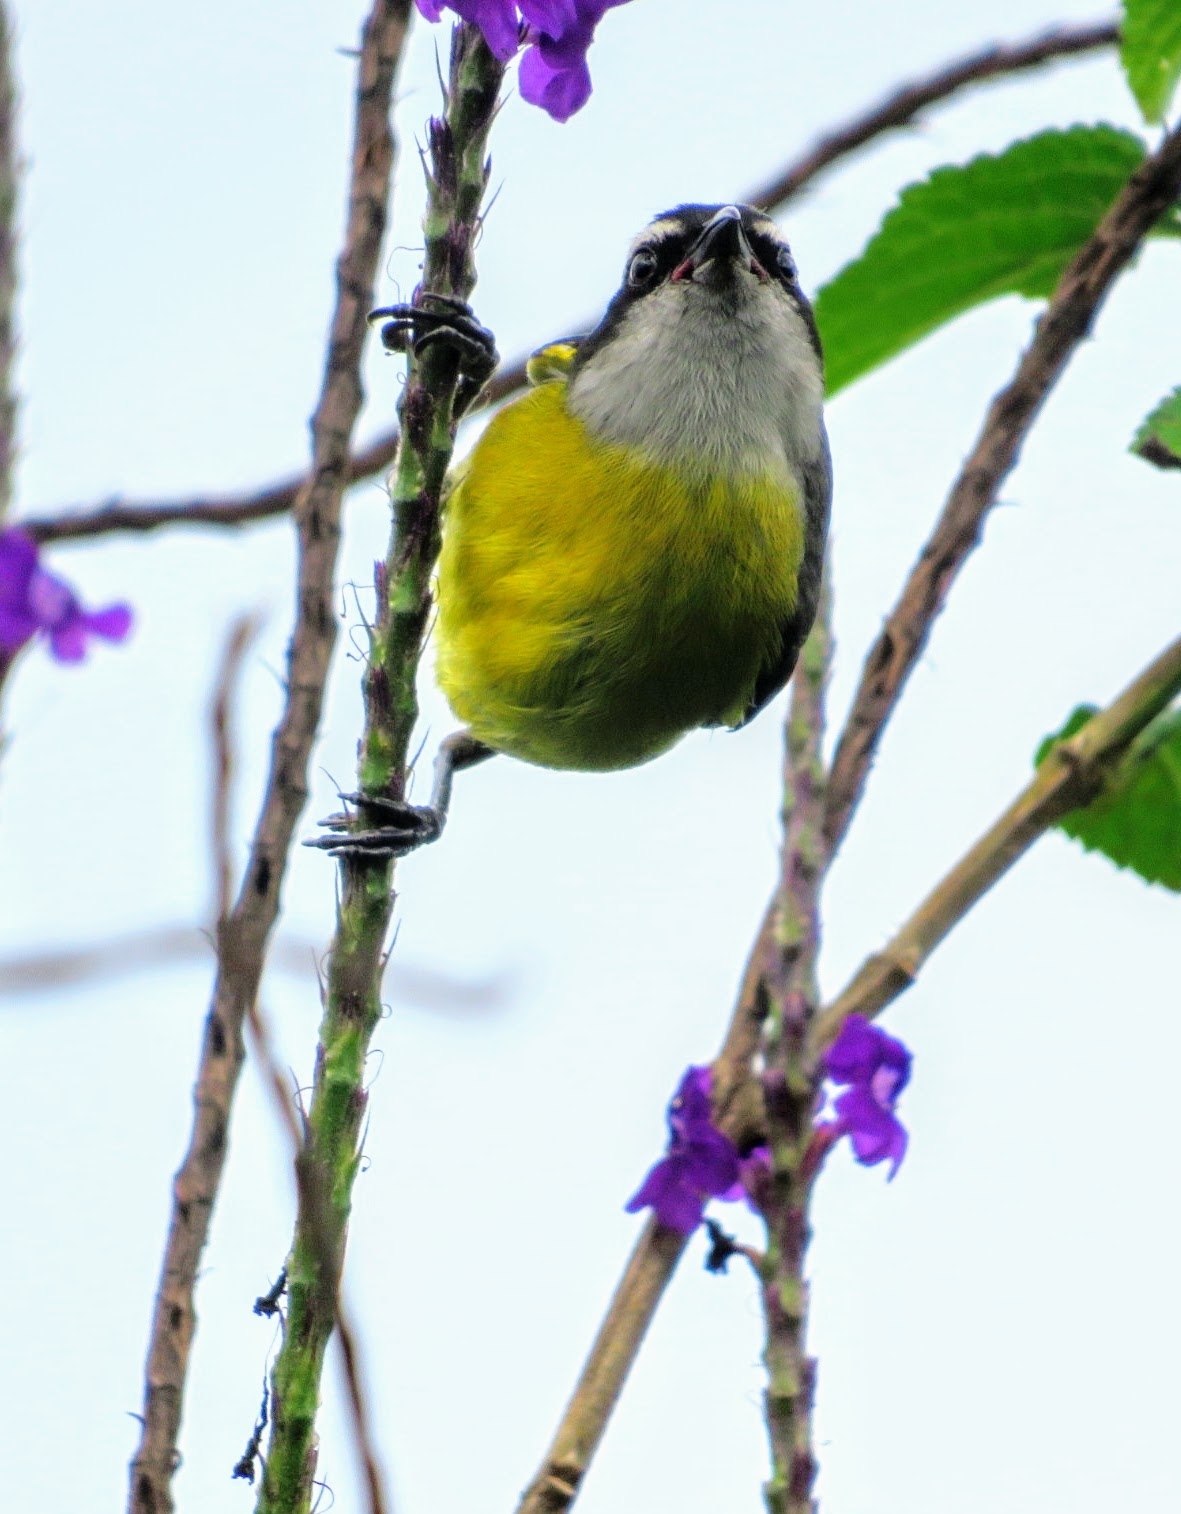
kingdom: Animalia
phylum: Chordata
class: Aves
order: Passeriformes
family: Thraupidae
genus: Coereba
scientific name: Coereba flaveola
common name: Bananaquit
